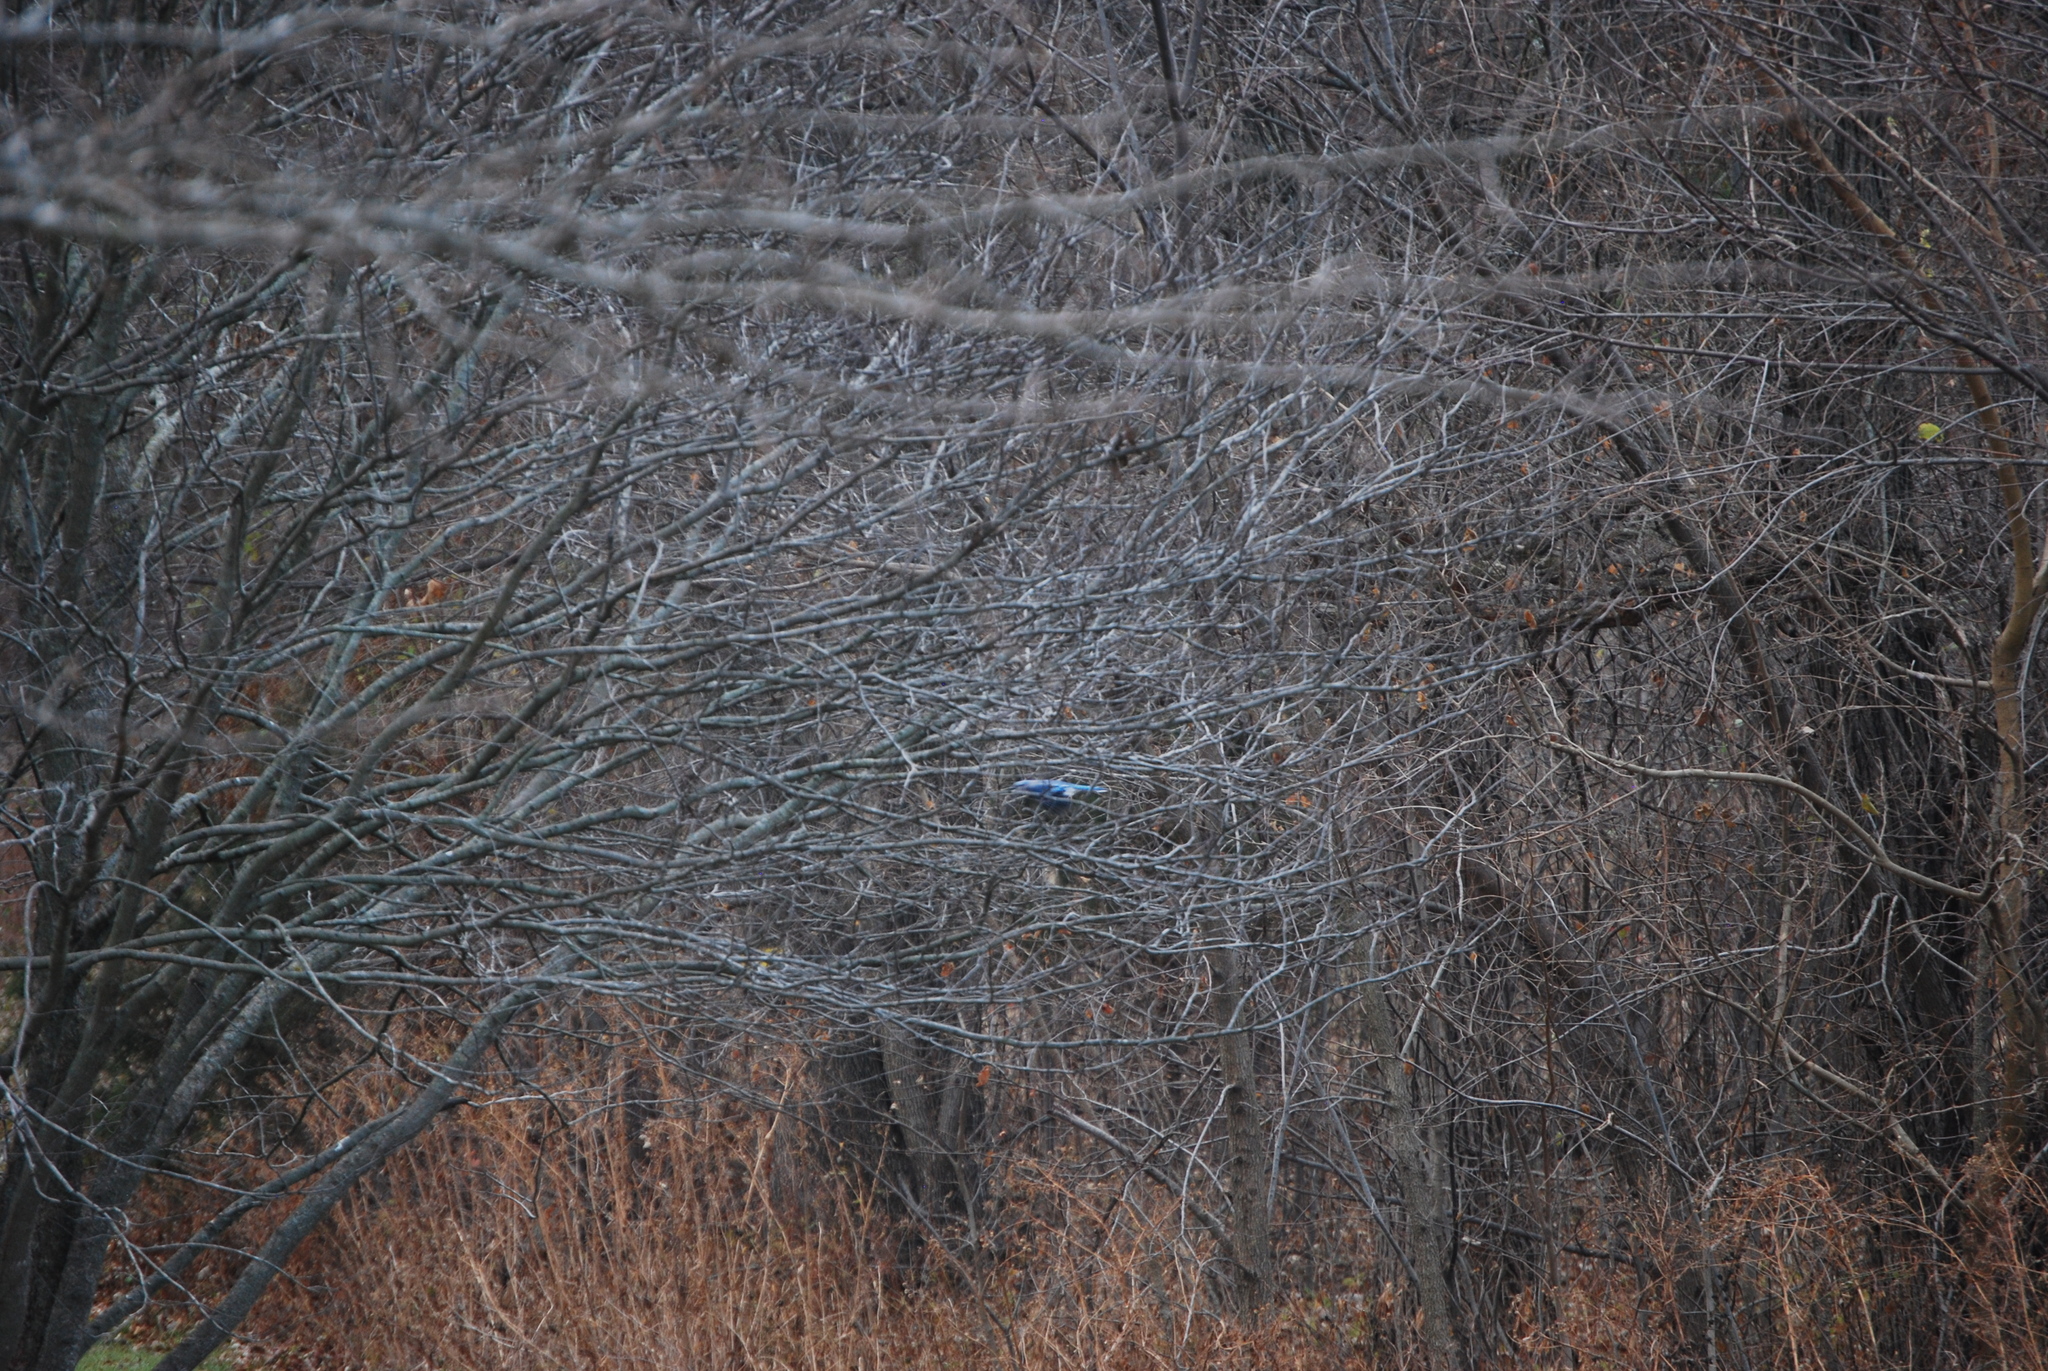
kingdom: Animalia
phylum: Chordata
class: Aves
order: Passeriformes
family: Corvidae
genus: Cyanocitta
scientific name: Cyanocitta cristata
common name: Blue jay
